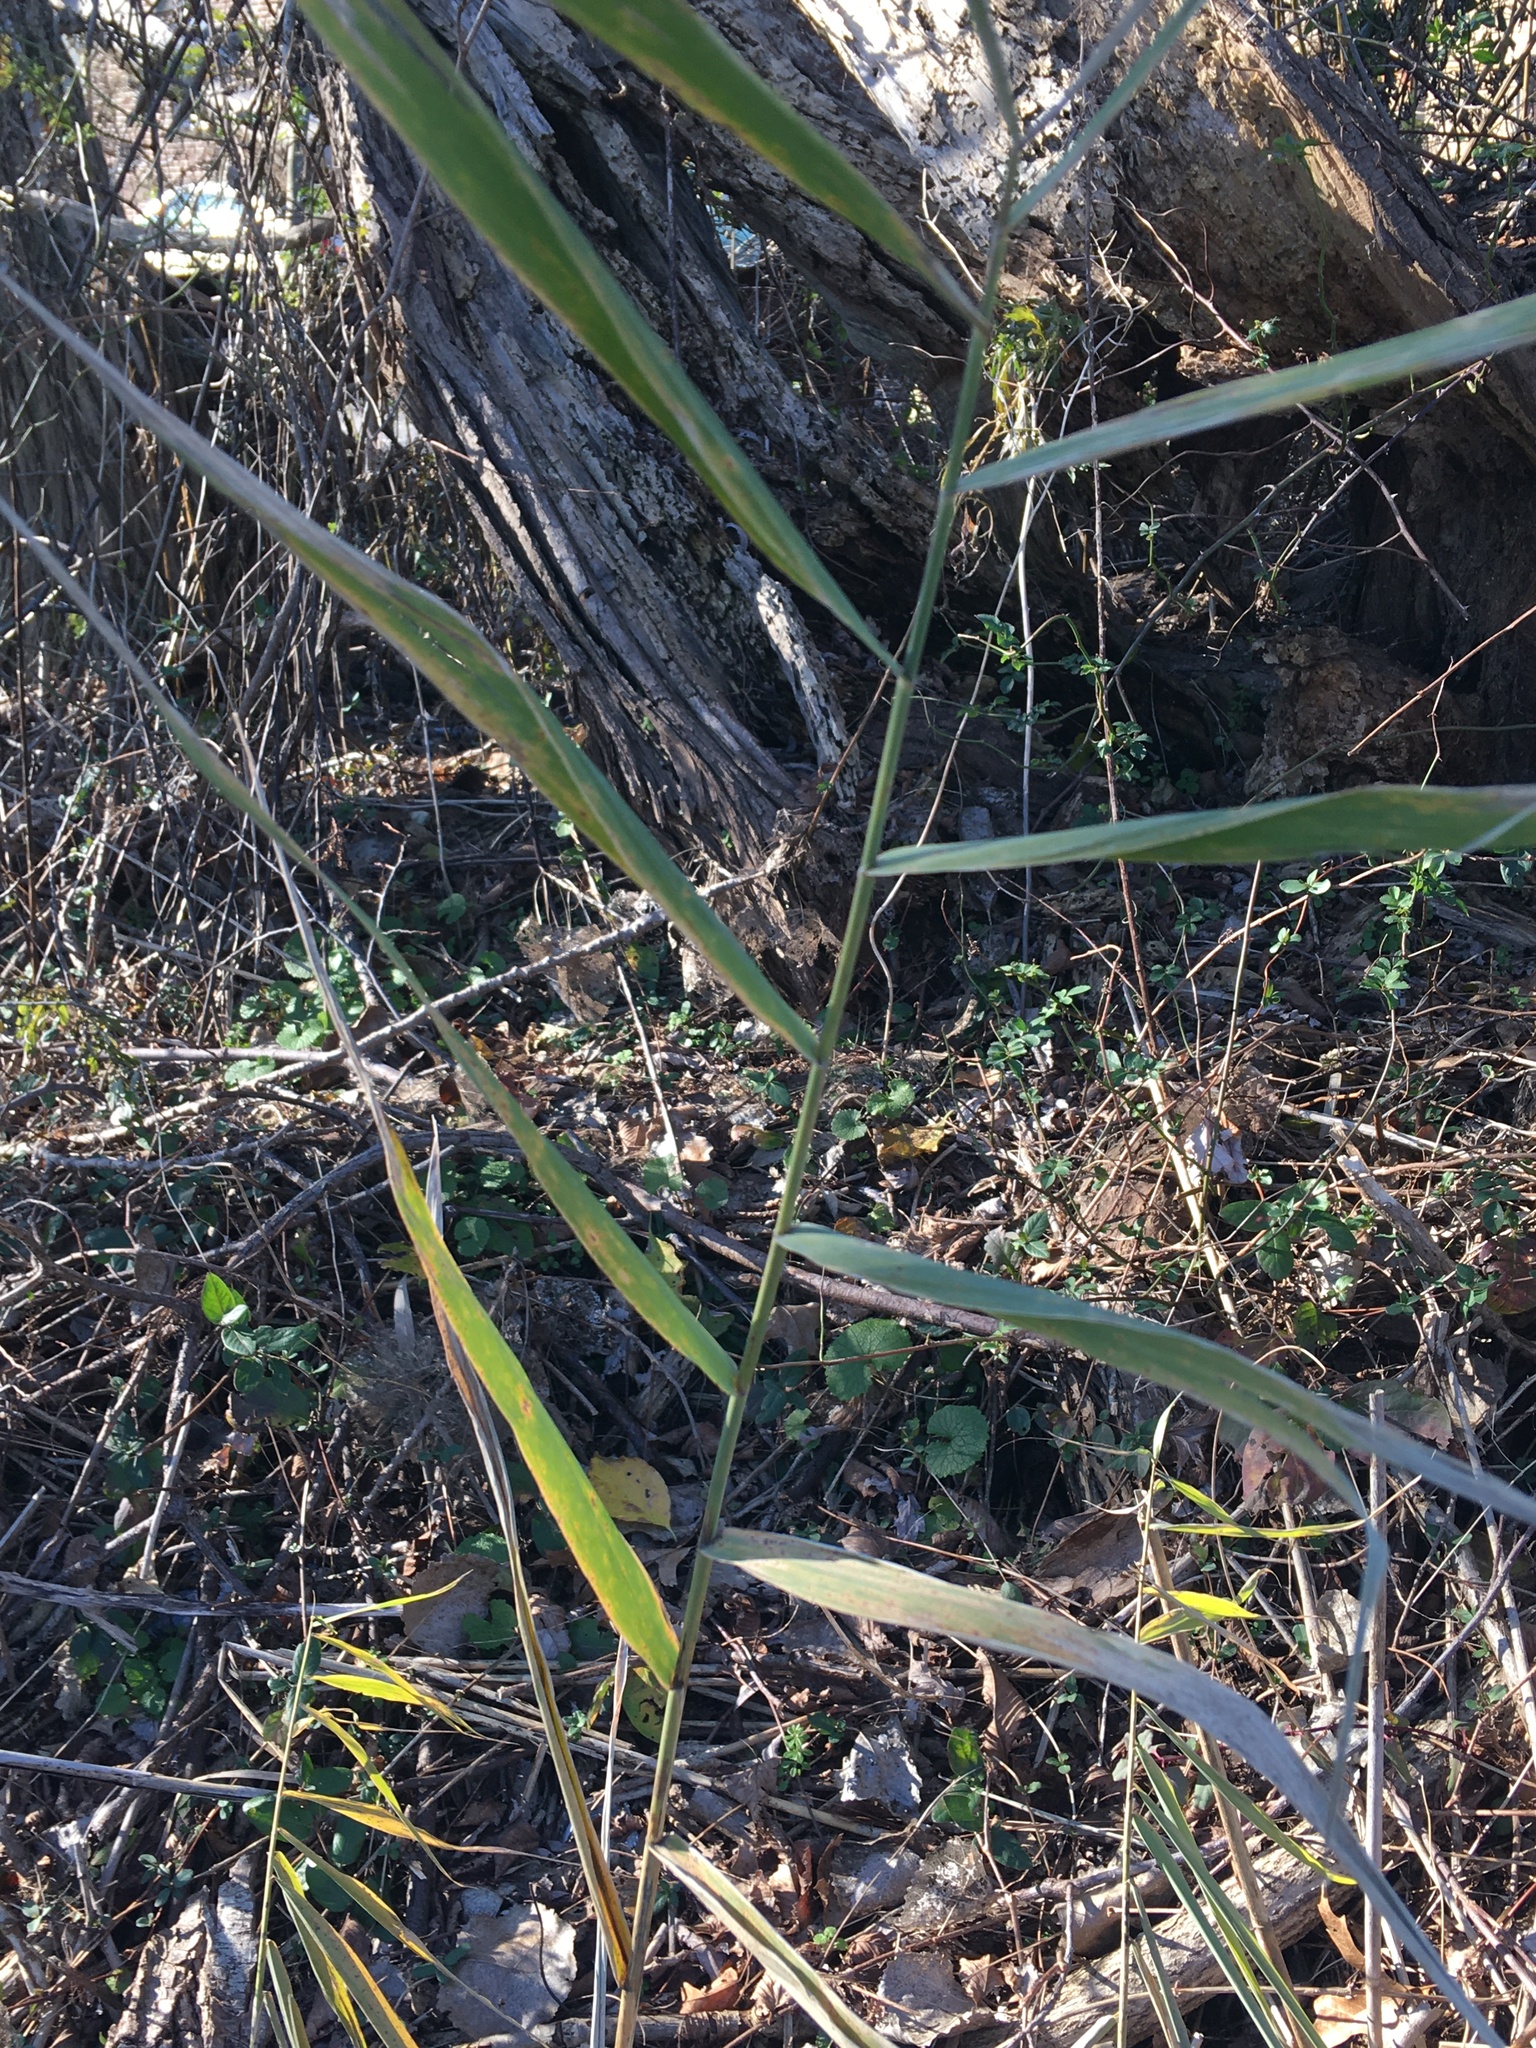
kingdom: Plantae
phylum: Tracheophyta
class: Liliopsida
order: Poales
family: Poaceae
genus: Phragmites
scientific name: Phragmites australis
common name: Common reed
